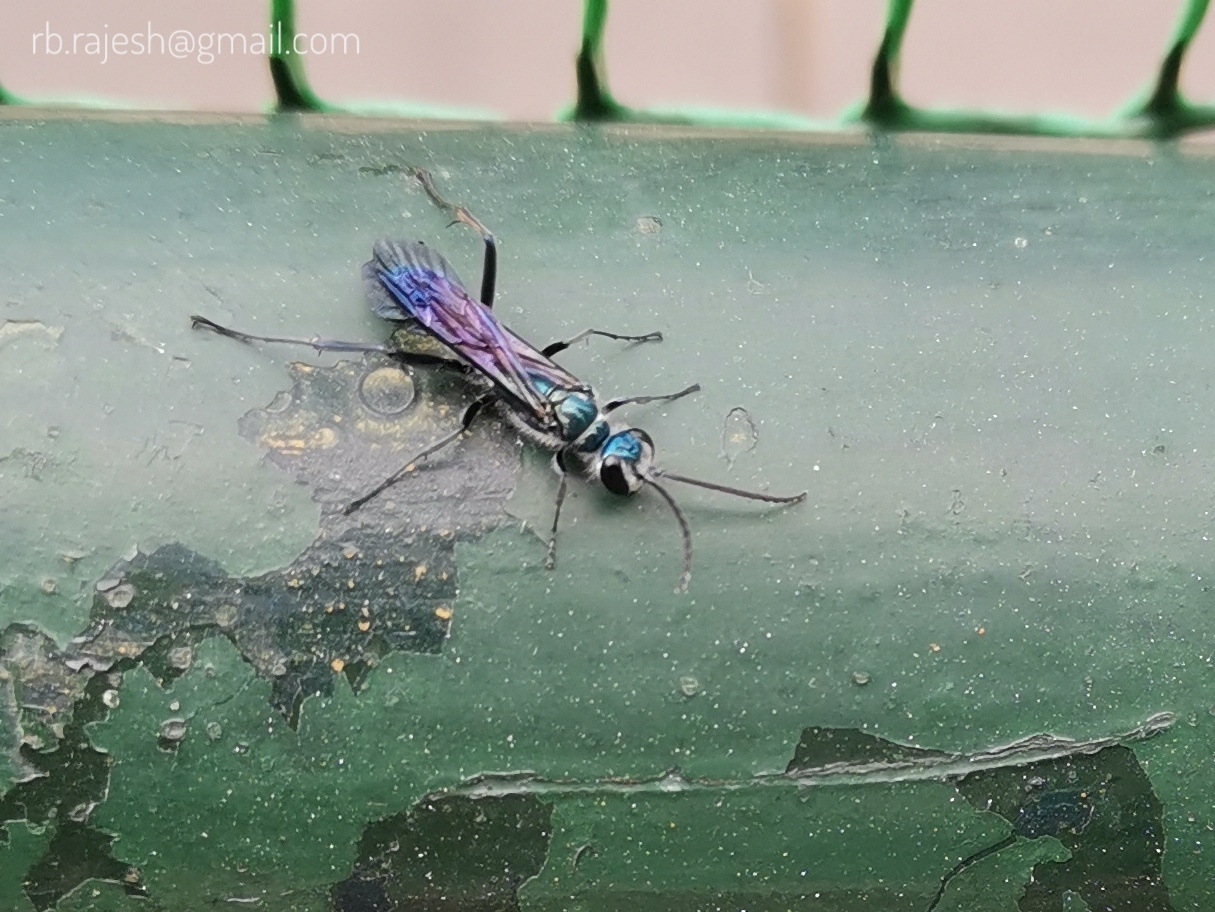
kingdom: Animalia
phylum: Arthropoda
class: Insecta
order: Hymenoptera
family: Sphecidae
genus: Chalybion
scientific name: Chalybion bengalense
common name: Mud dauber
